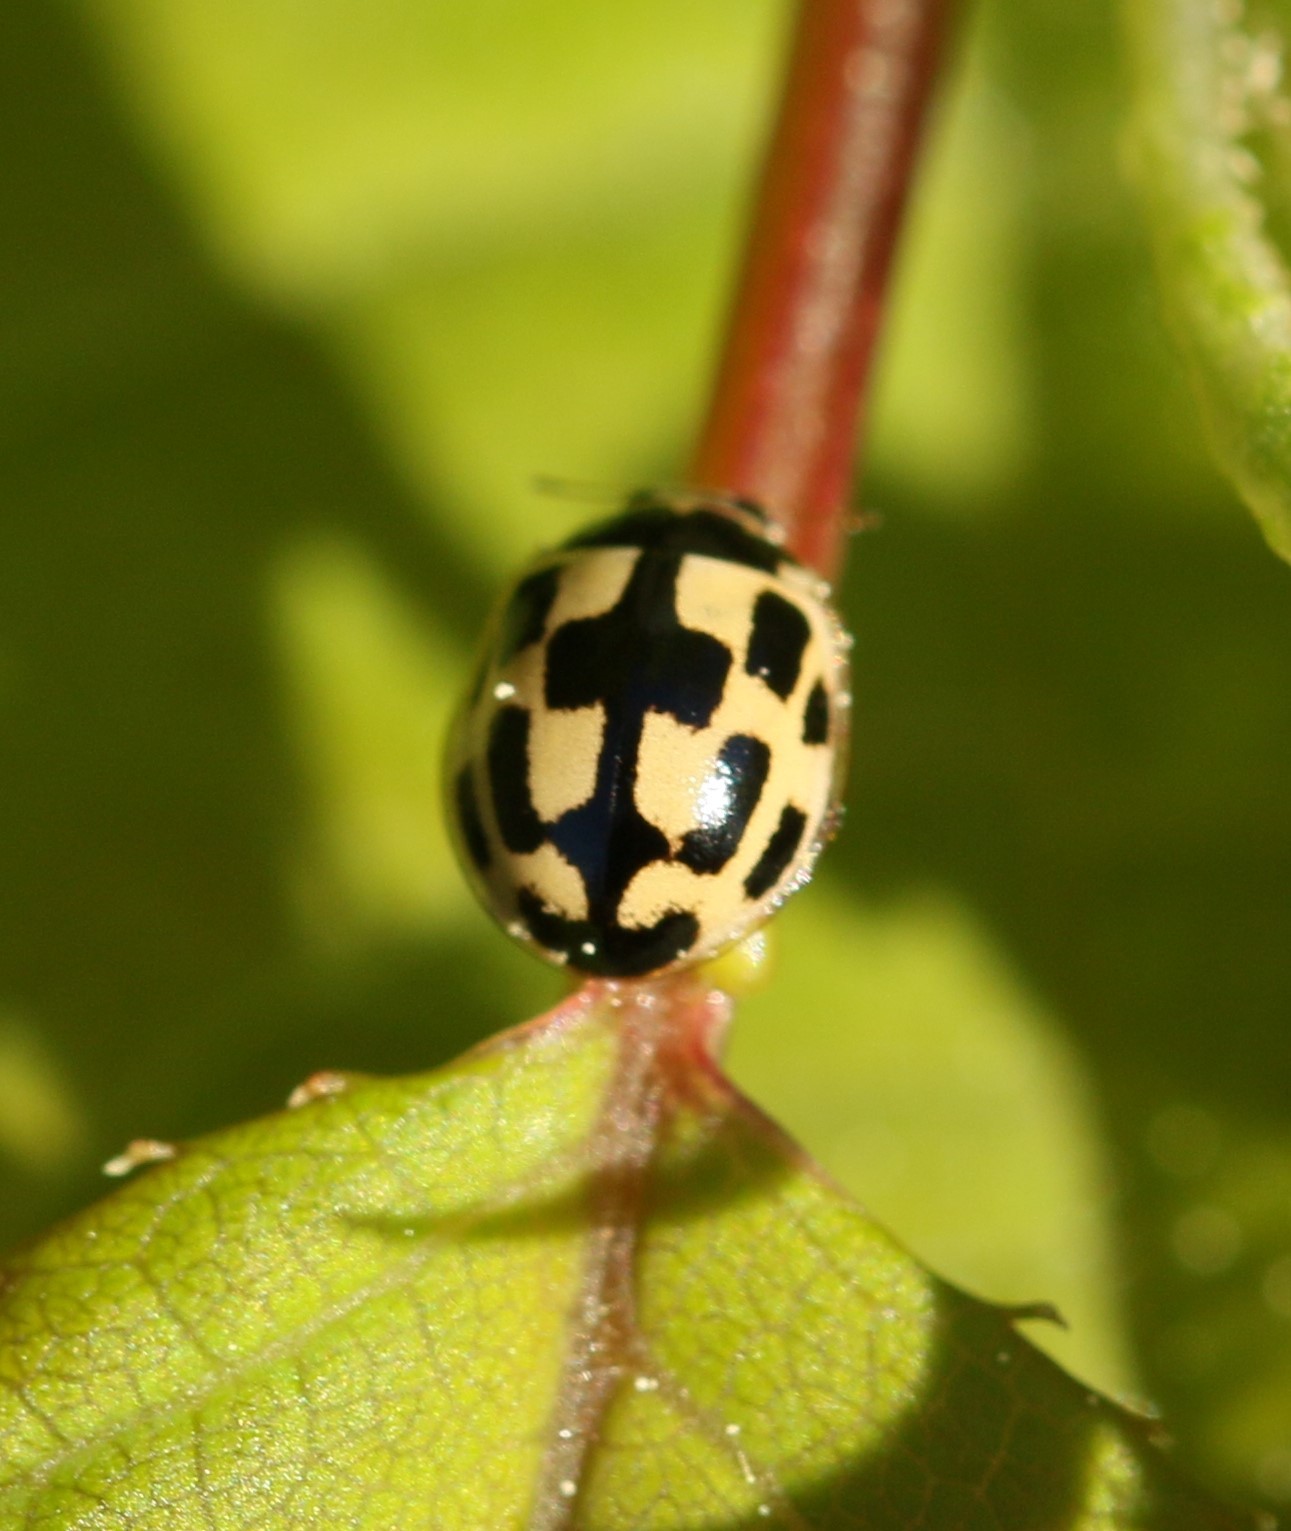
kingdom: Animalia
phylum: Arthropoda
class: Insecta
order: Coleoptera
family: Coccinellidae
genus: Propylaea
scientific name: Propylaea quatuordecimpunctata
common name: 14-spotted ladybird beetle
